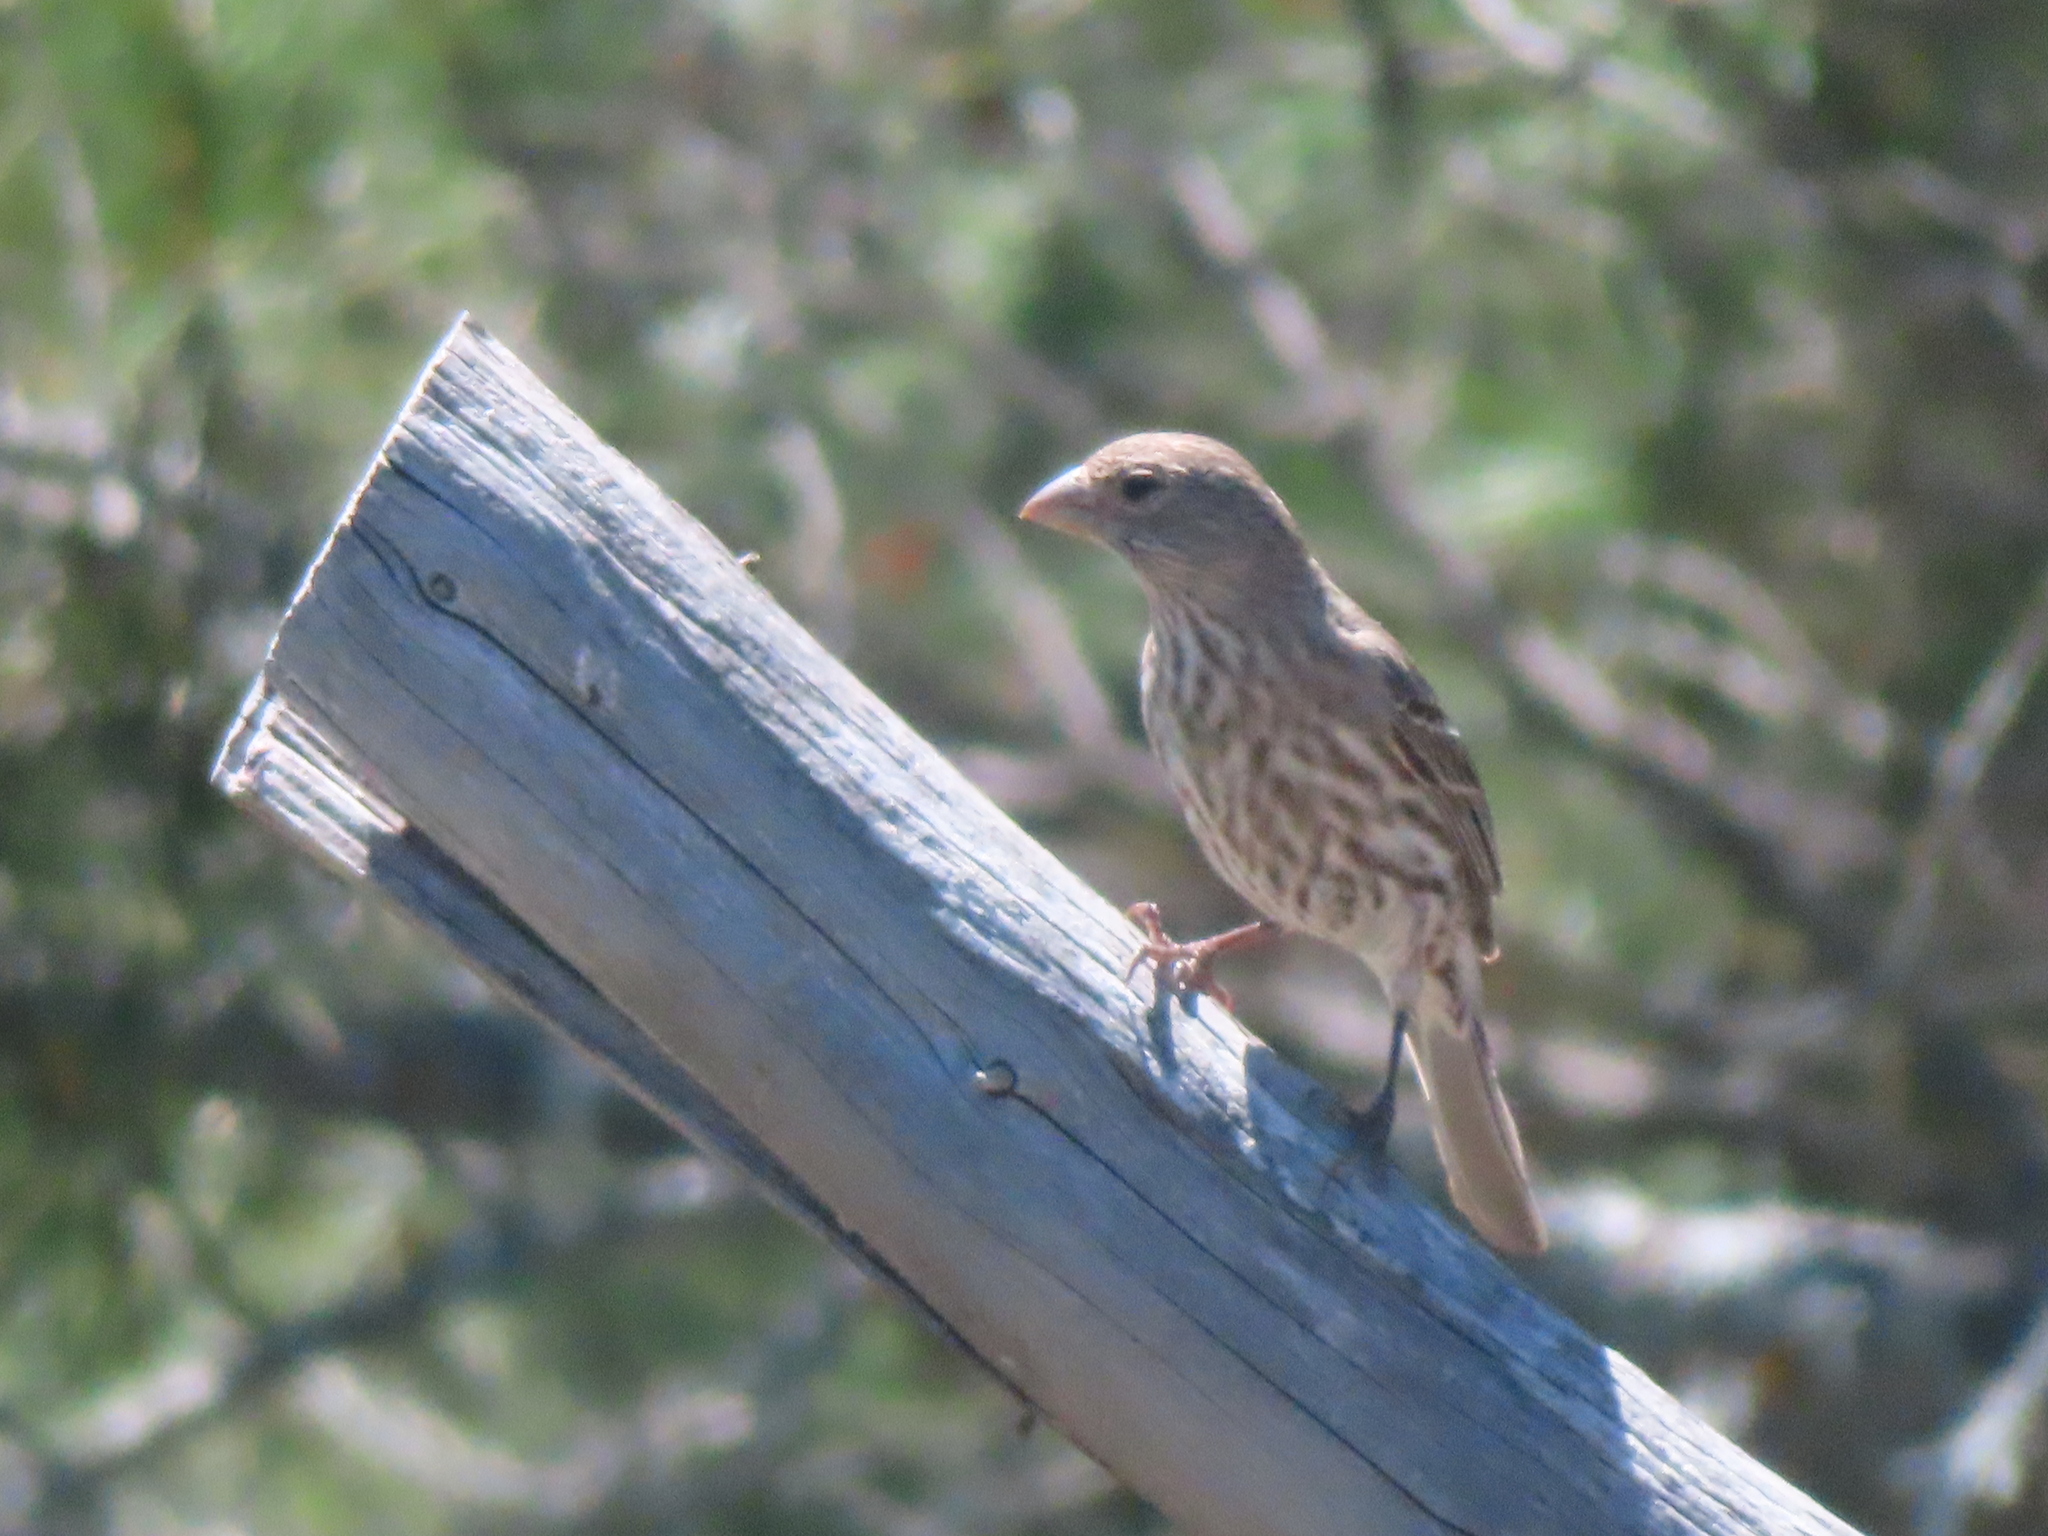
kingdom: Animalia
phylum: Chordata
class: Aves
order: Passeriformes
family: Fringillidae
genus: Haemorhous
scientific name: Haemorhous mexicanus
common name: House finch
